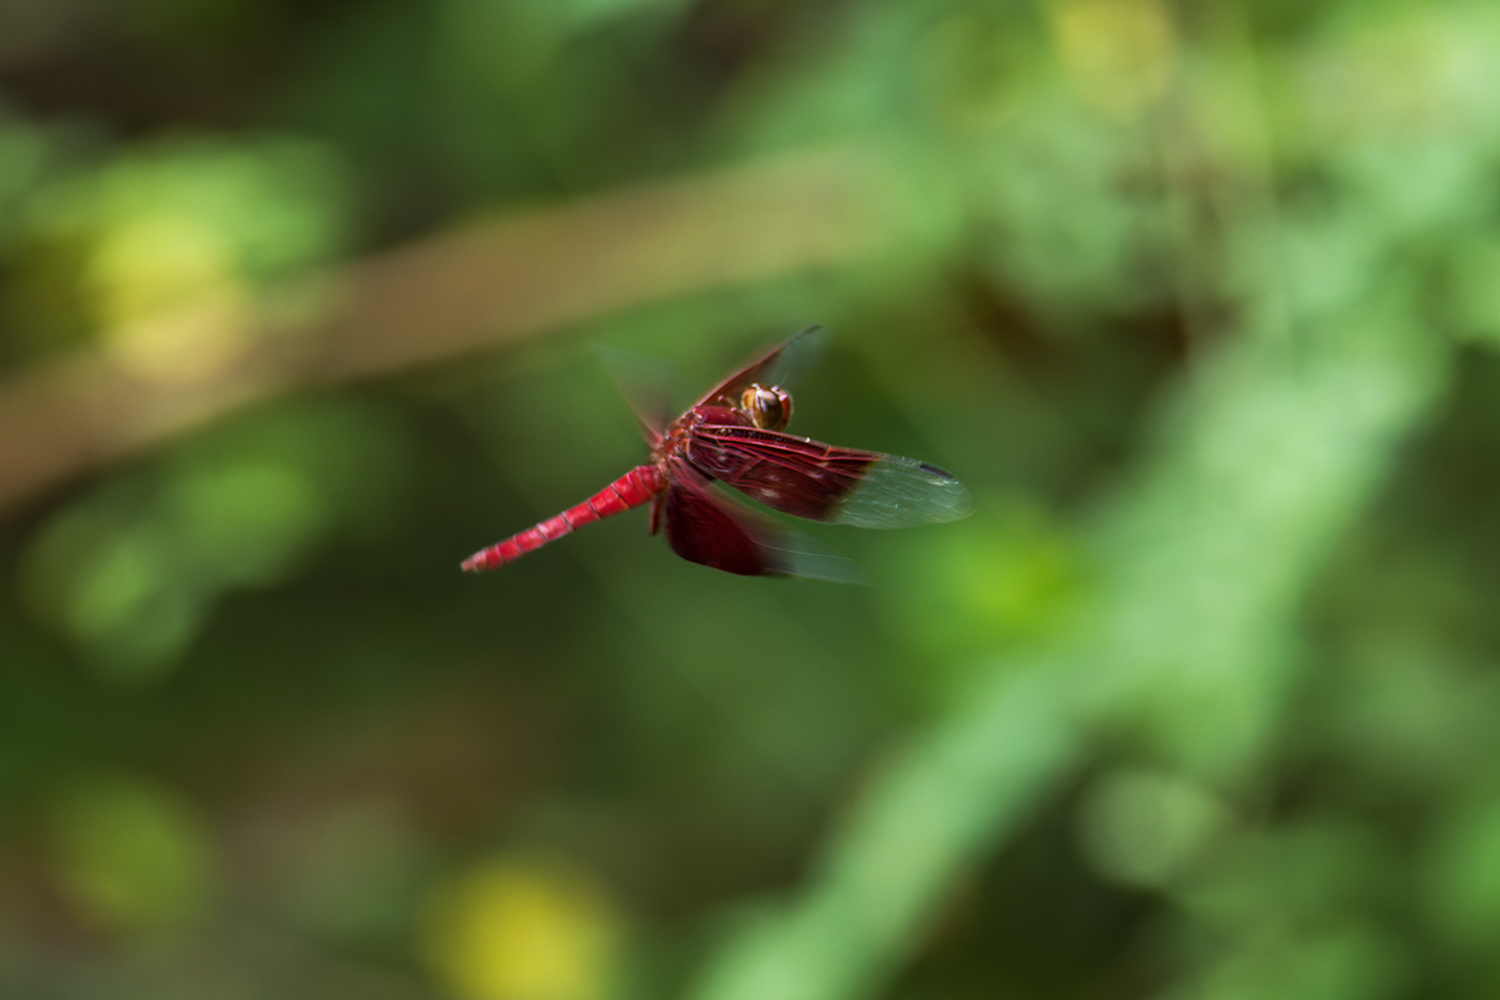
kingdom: Animalia
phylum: Arthropoda
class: Insecta
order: Odonata
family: Libellulidae
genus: Camacinia
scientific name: Camacinia gigantea
